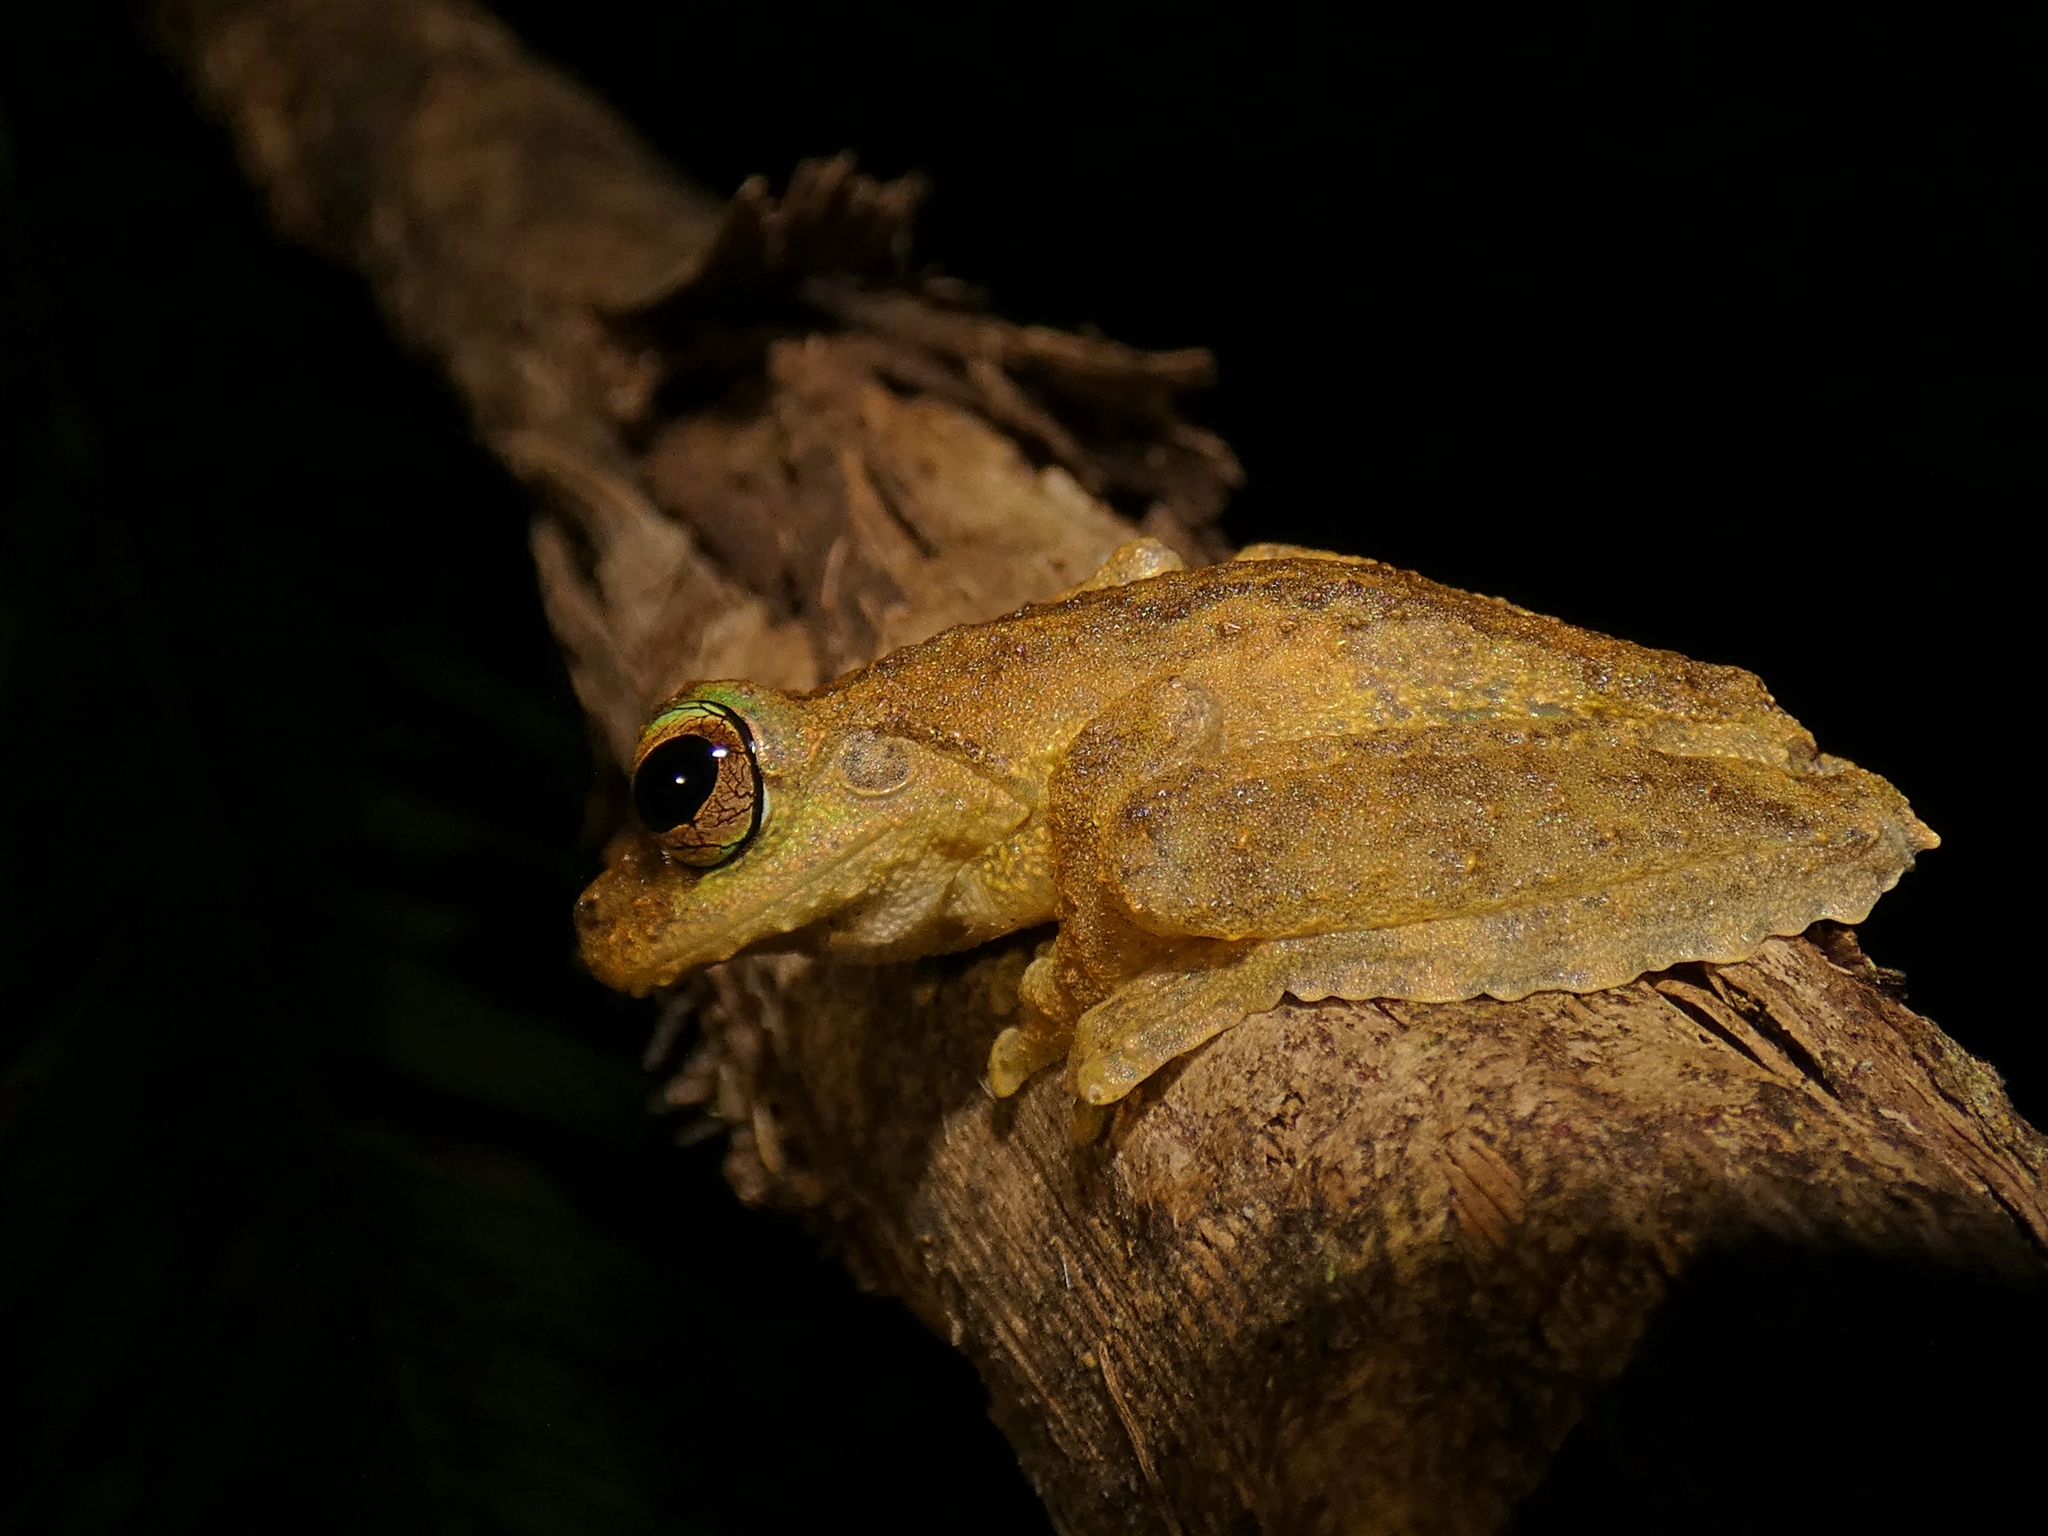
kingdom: Animalia
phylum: Chordata
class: Amphibia
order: Anura
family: Pelodryadidae
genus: Ranoidea
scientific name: Ranoidea serrata
